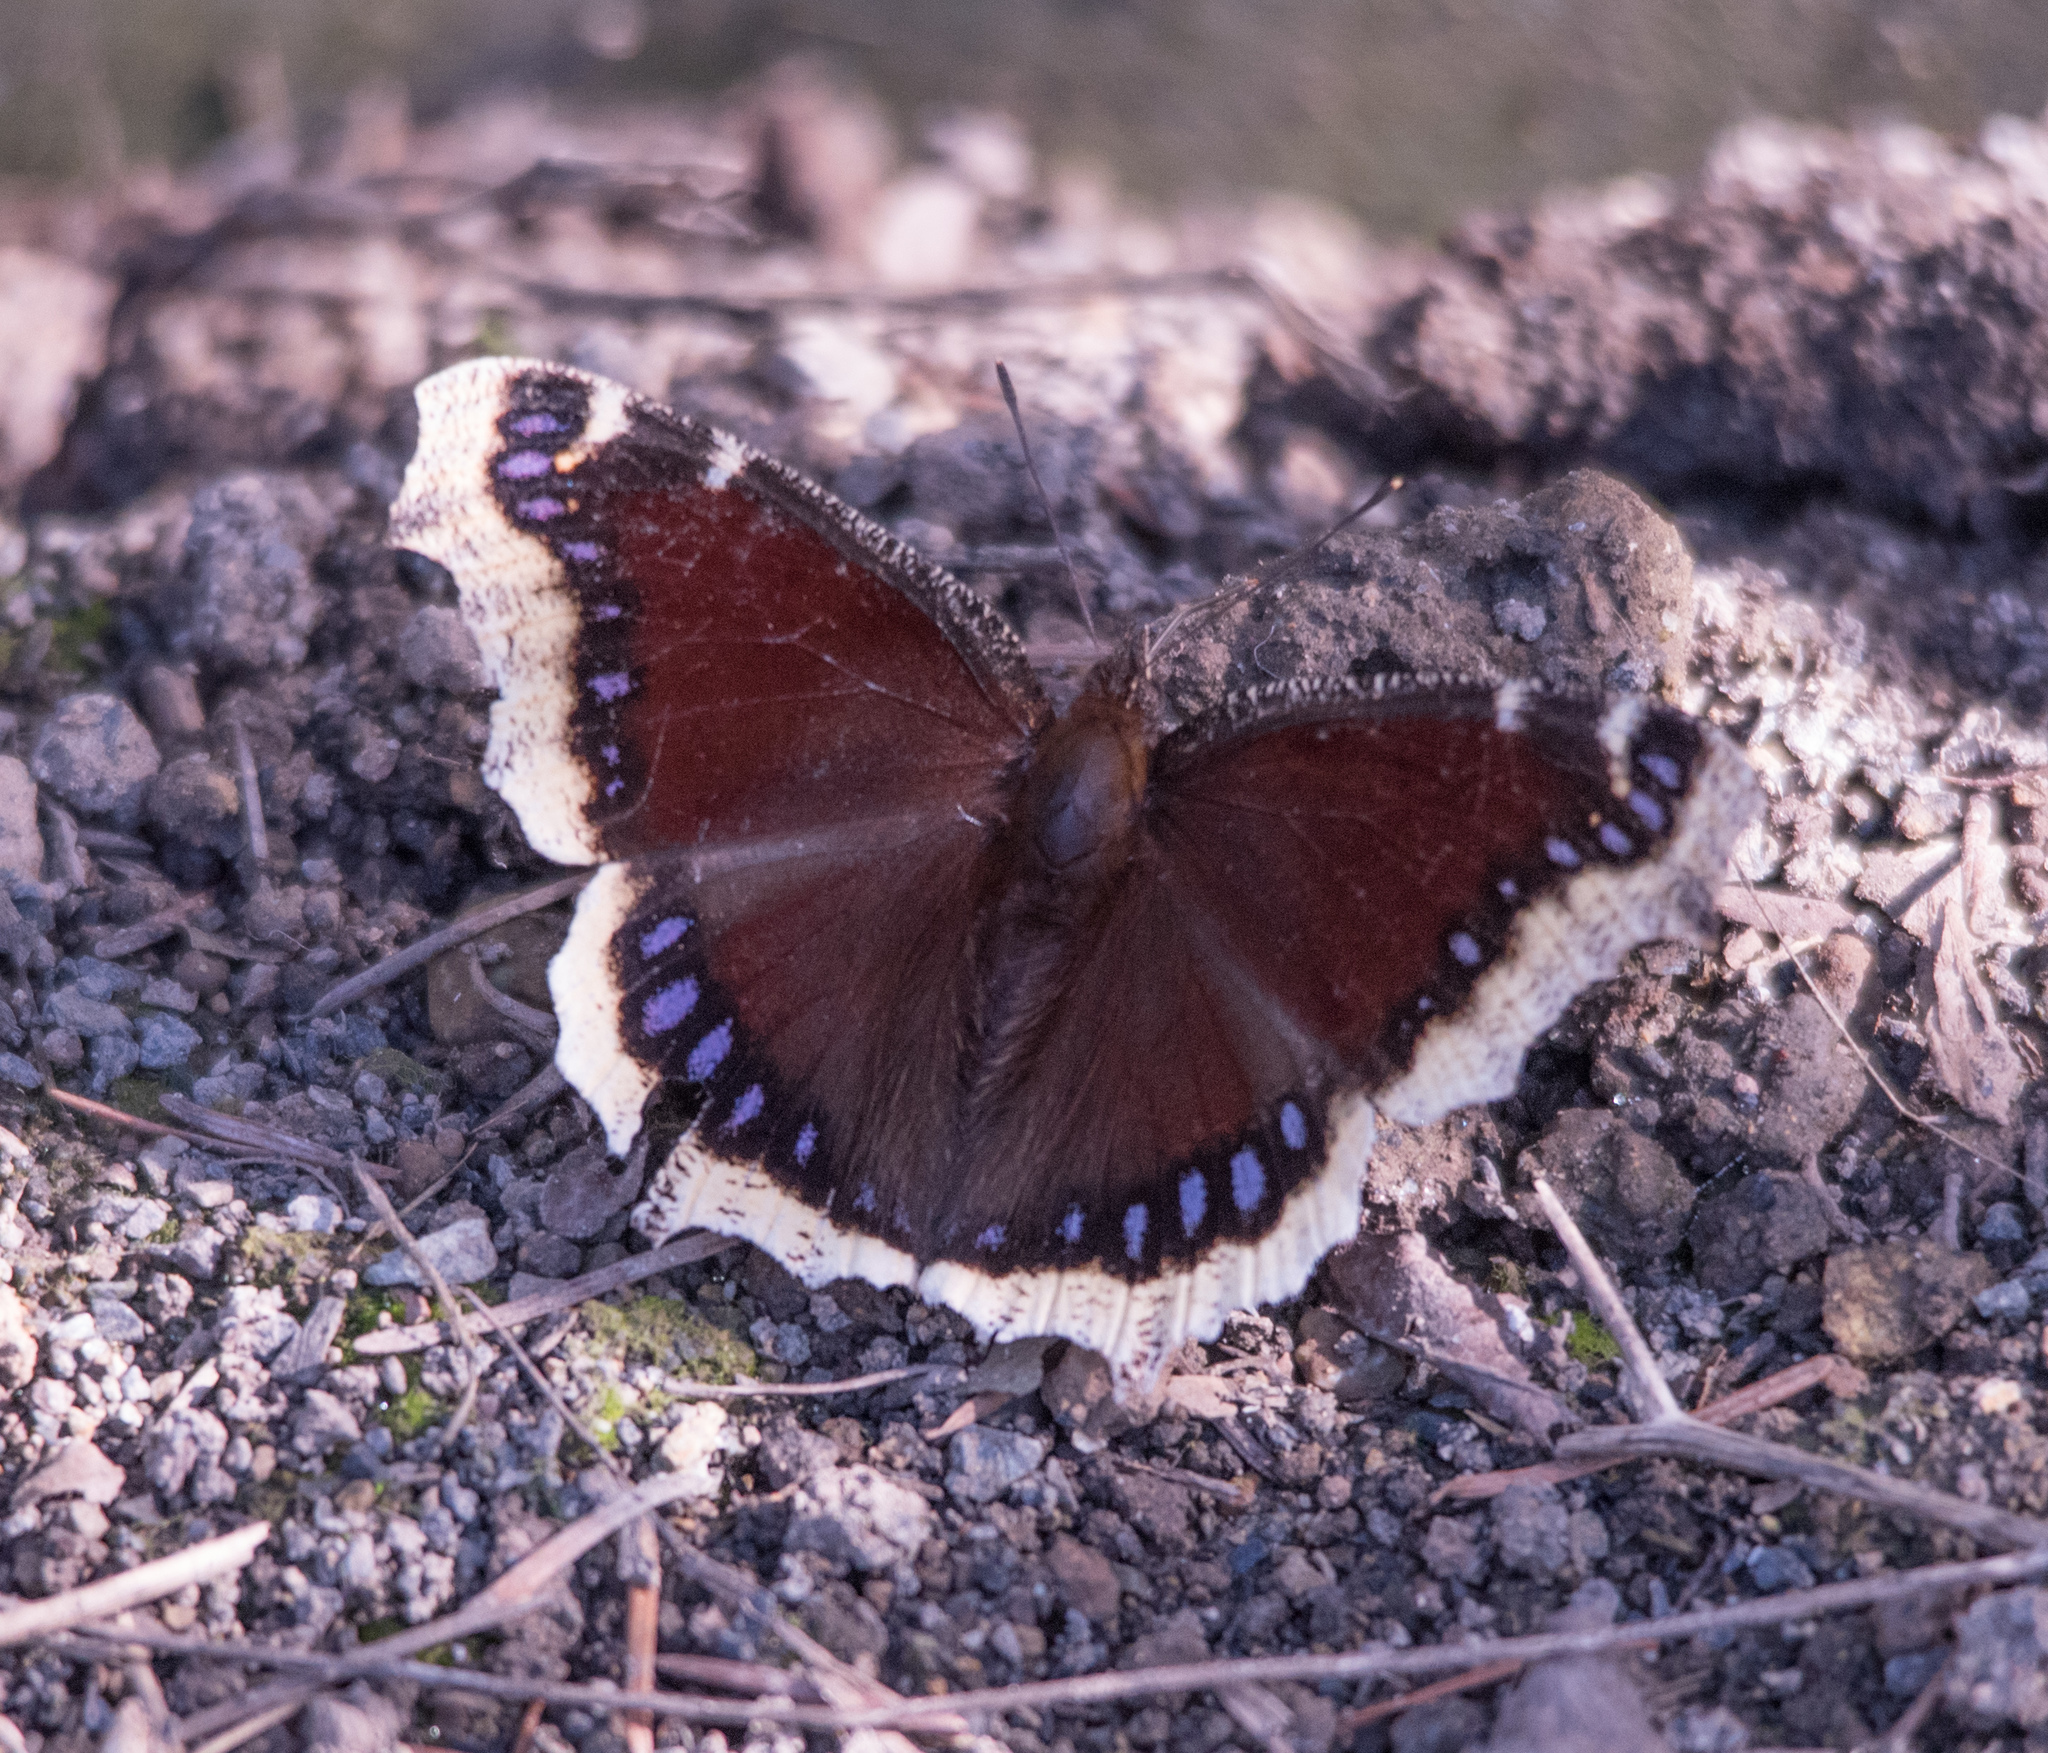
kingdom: Animalia
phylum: Arthropoda
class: Insecta
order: Lepidoptera
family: Nymphalidae
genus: Nymphalis
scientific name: Nymphalis antiopa
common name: Camberwell beauty
